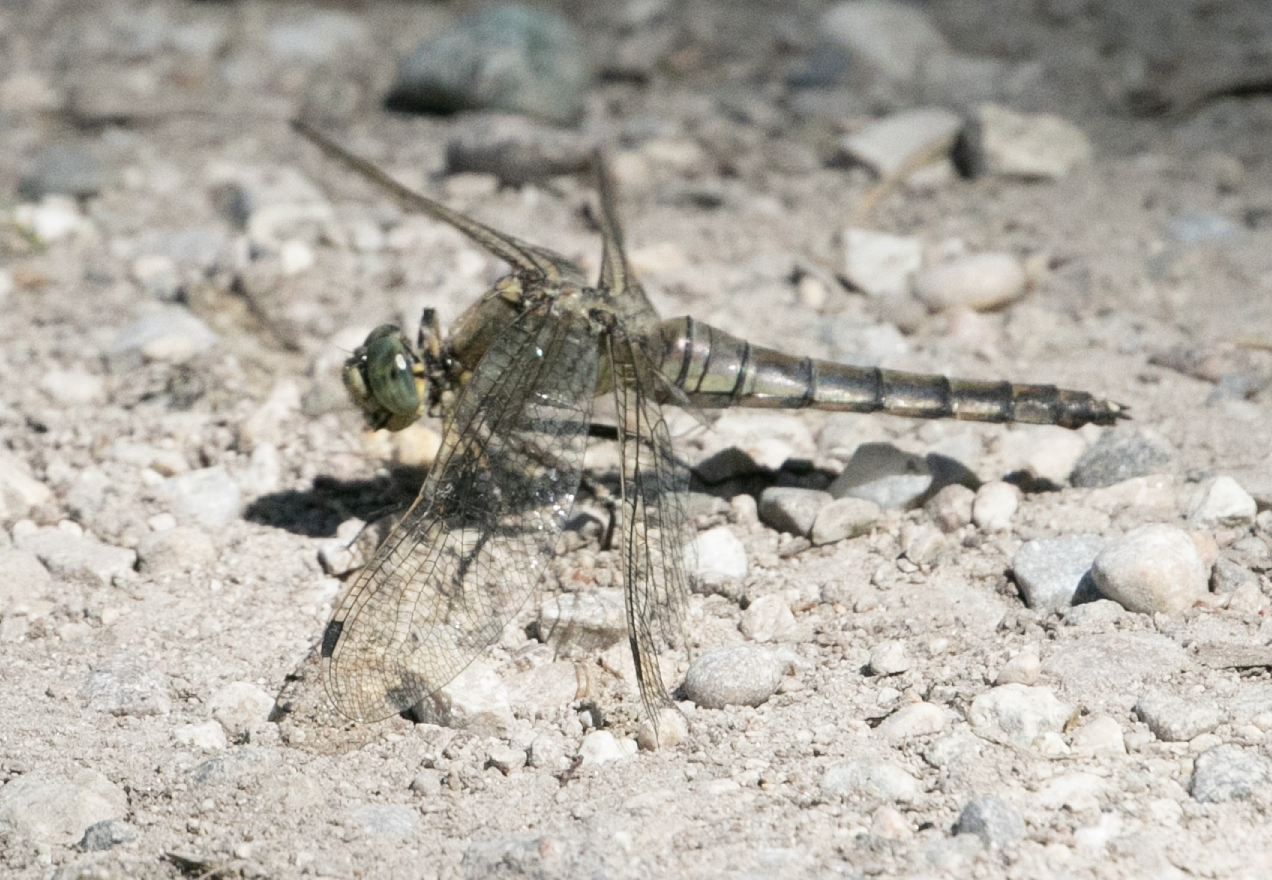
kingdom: Animalia
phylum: Arthropoda
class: Insecta
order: Odonata
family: Libellulidae
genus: Orthetrum
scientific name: Orthetrum cancellatum
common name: Black-tailed skimmer
